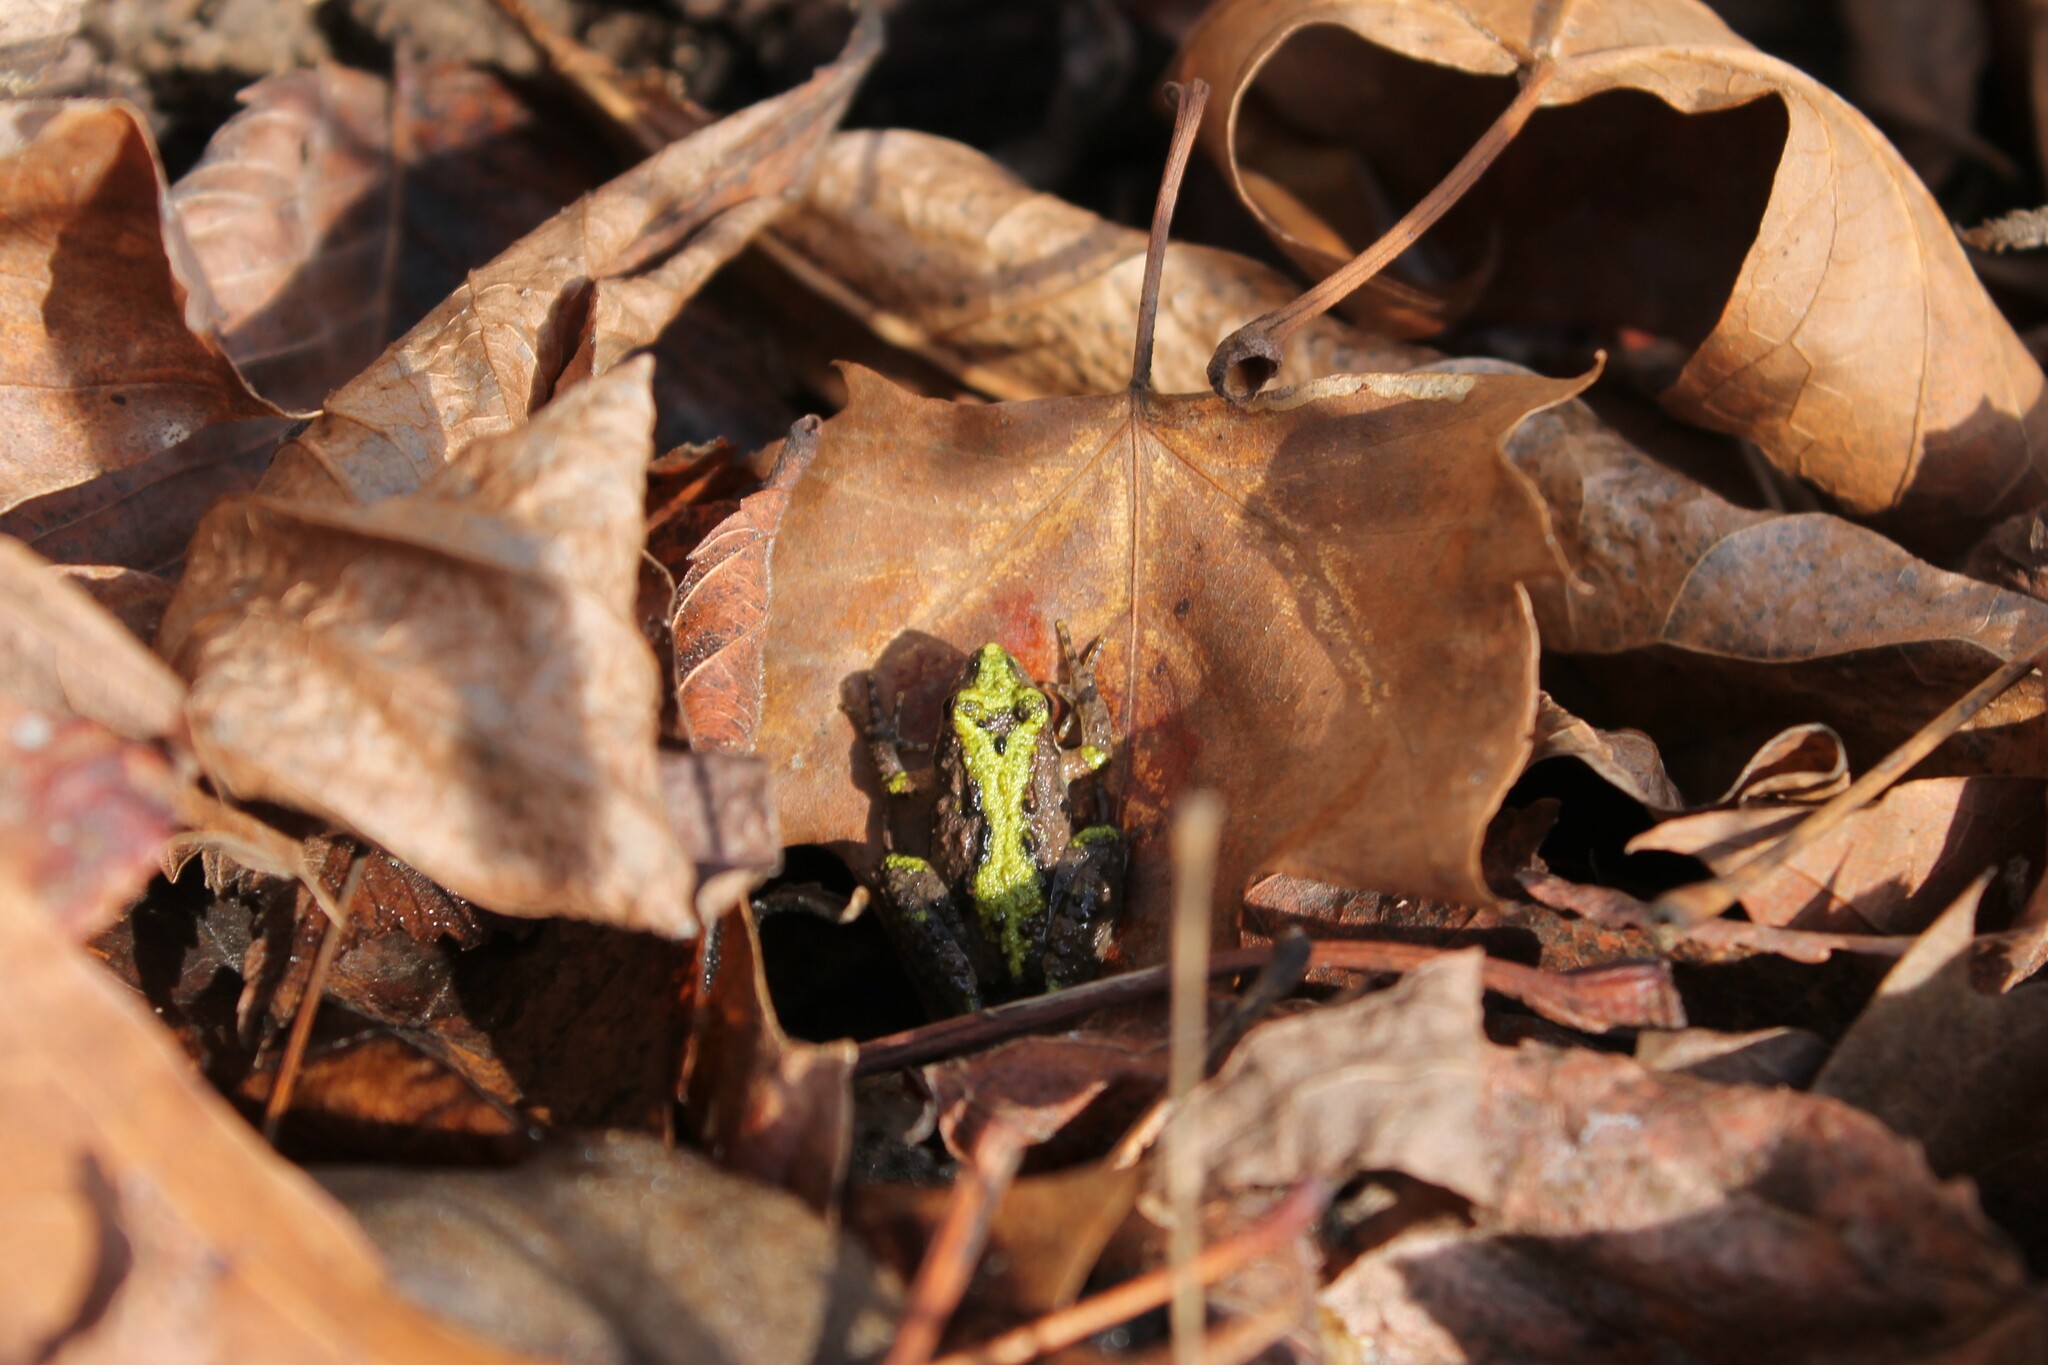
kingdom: Animalia
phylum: Chordata
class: Amphibia
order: Anura
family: Hylidae
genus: Acris
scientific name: Acris crepitans
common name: Northern cricket frog
